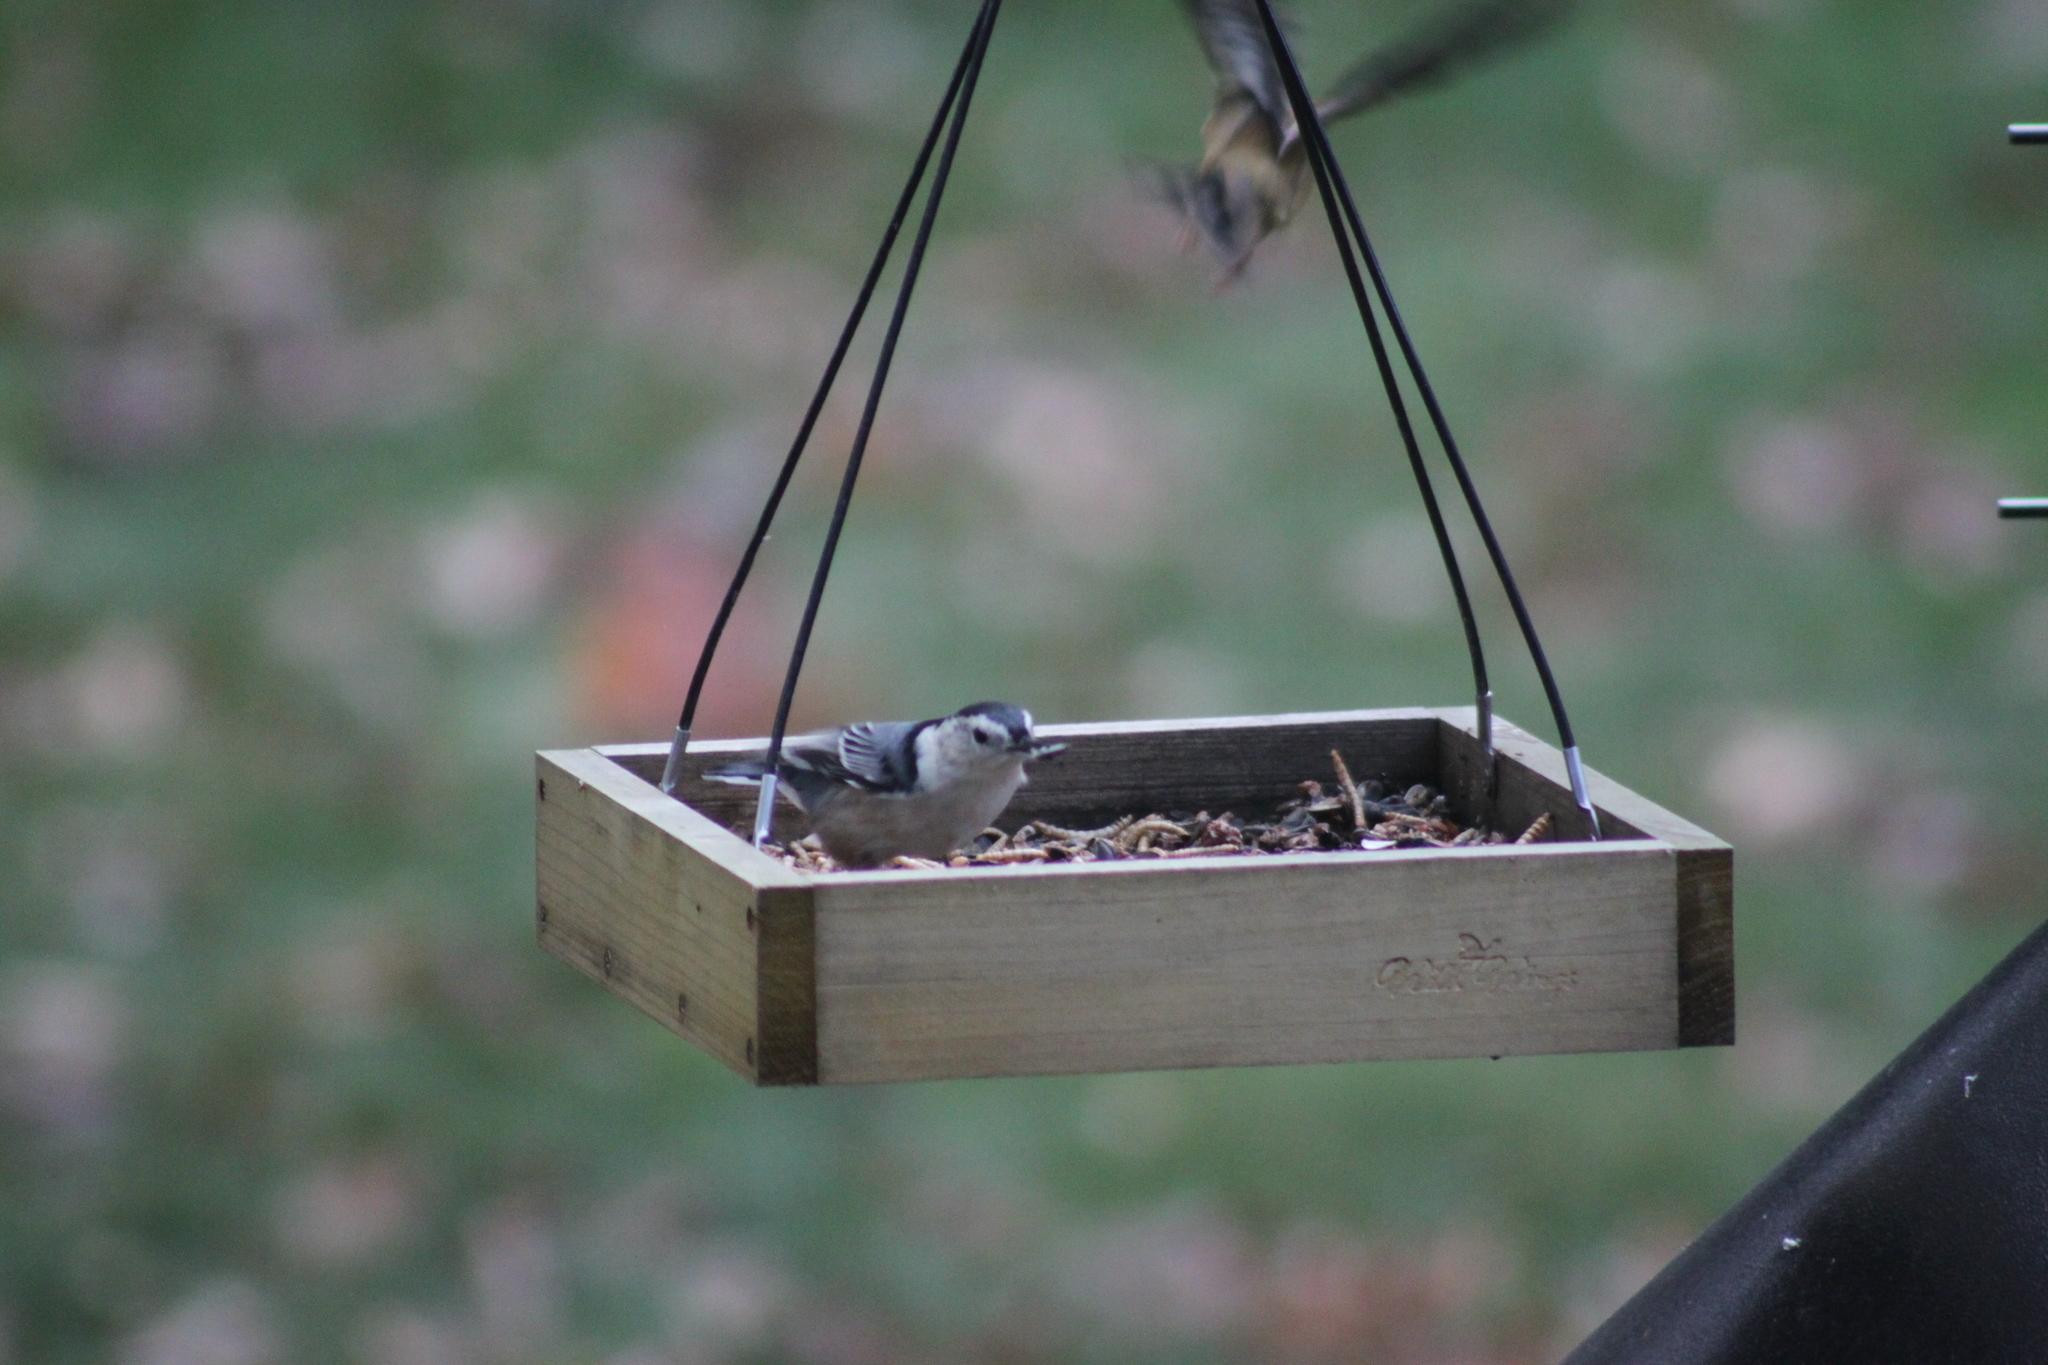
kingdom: Animalia
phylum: Chordata
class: Aves
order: Passeriformes
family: Sittidae
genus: Sitta
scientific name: Sitta carolinensis
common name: White-breasted nuthatch
